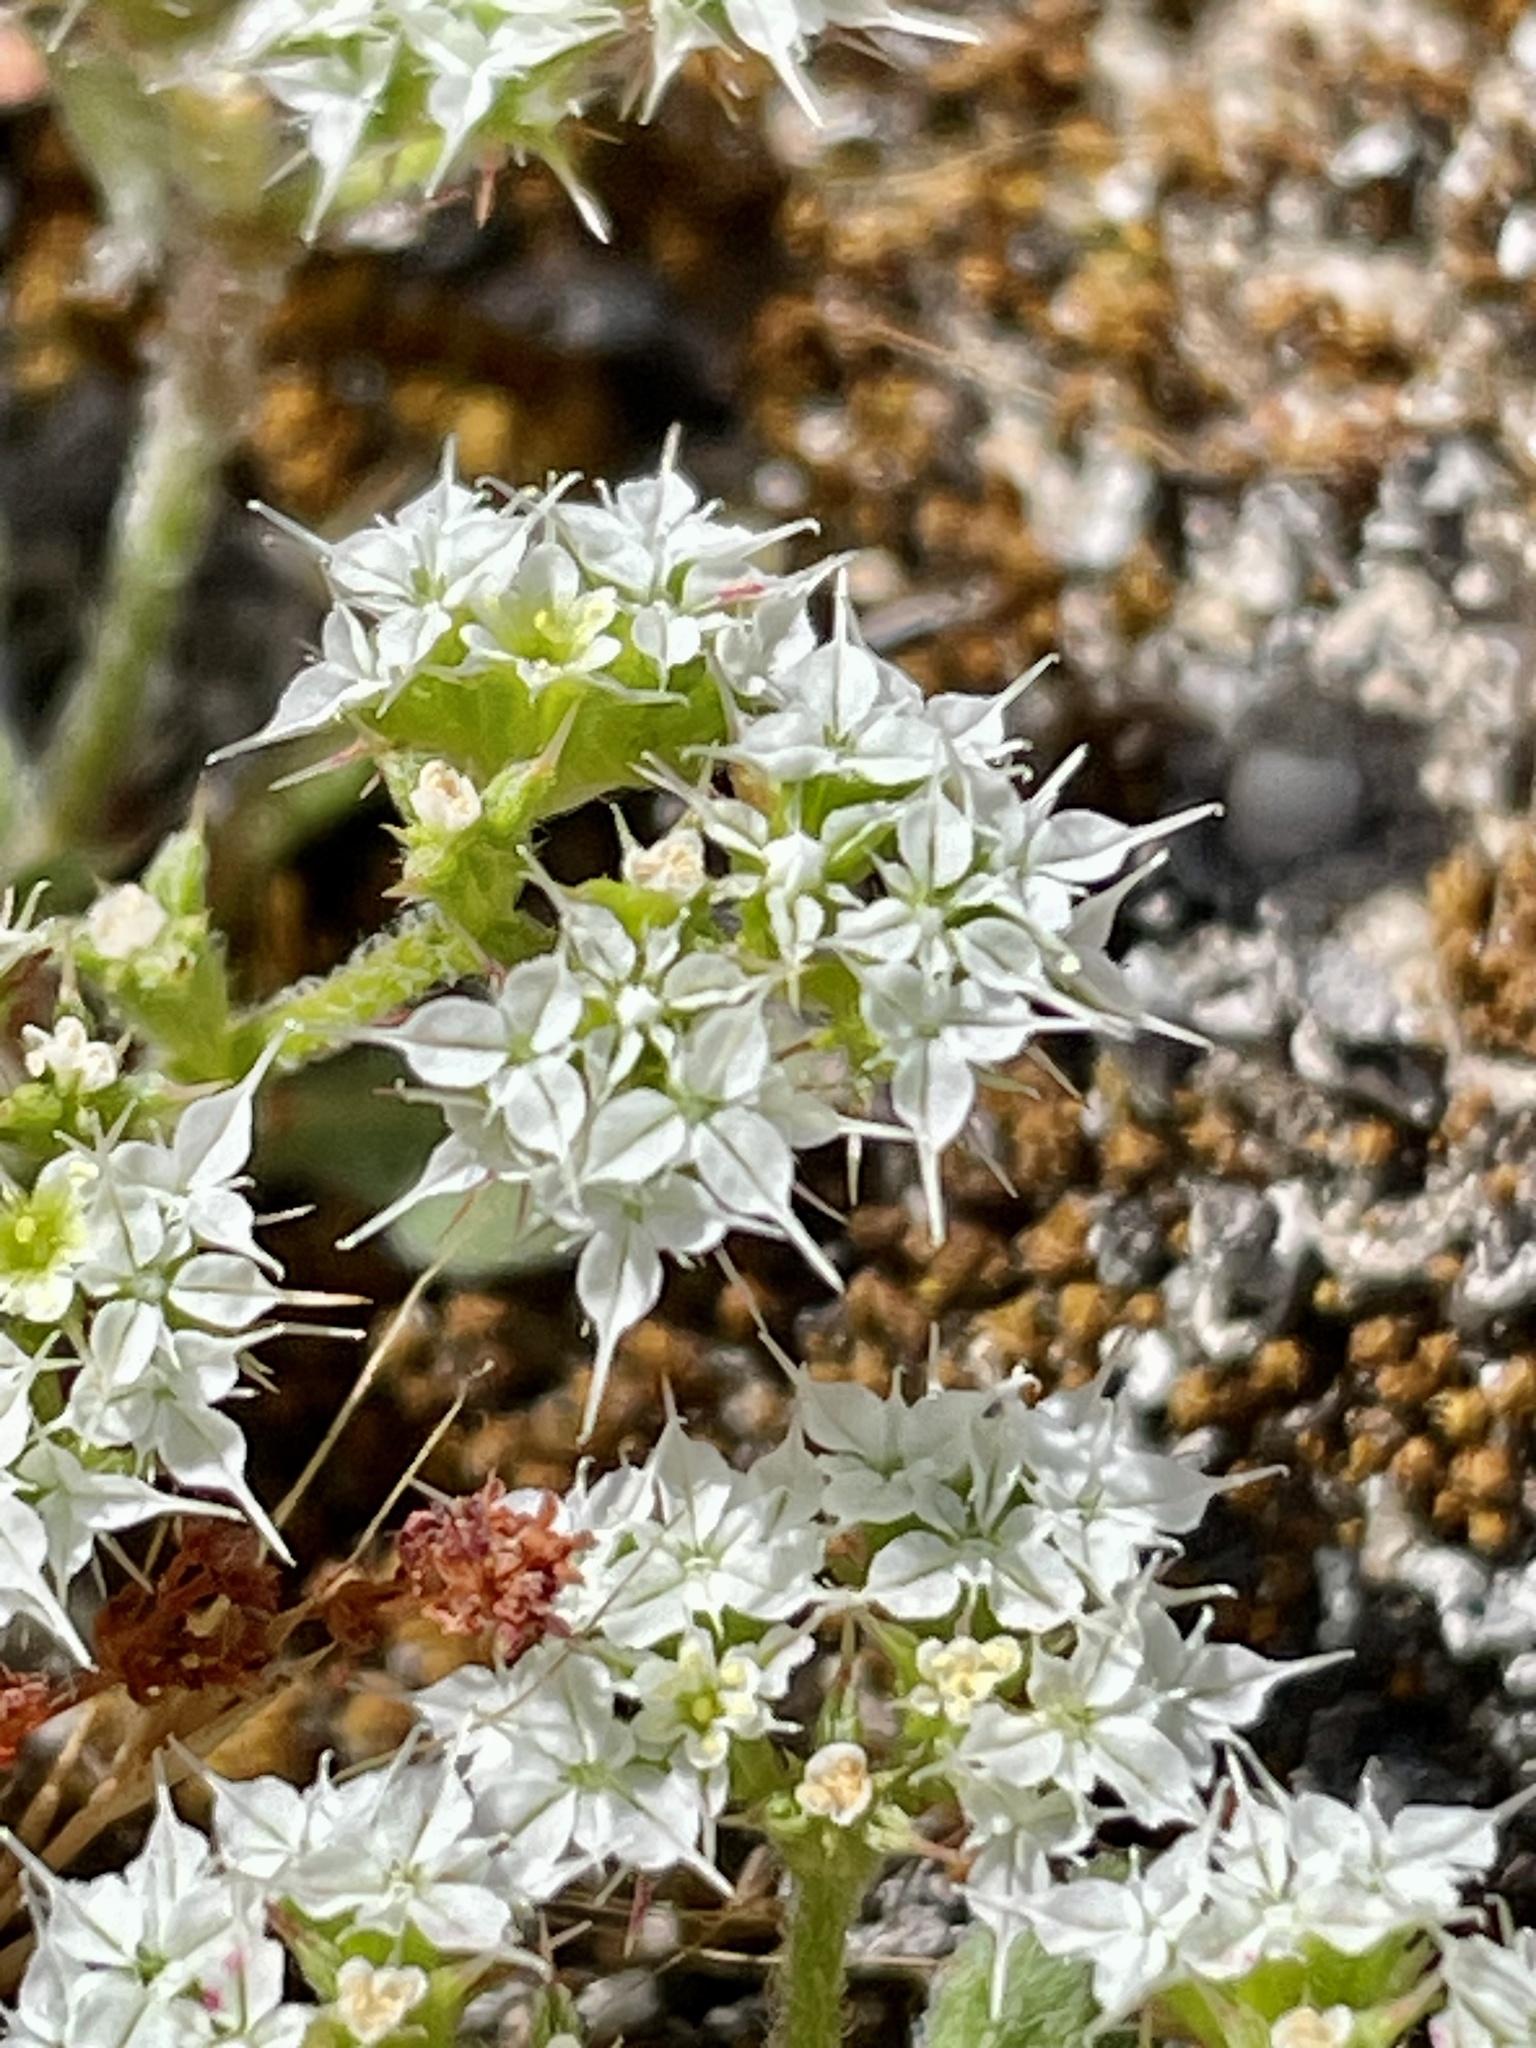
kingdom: Plantae
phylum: Tracheophyta
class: Magnoliopsida
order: Caryophyllales
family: Polygonaceae
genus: Chorizanthe
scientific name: Chorizanthe diffusa
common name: Diffuse spineflower
